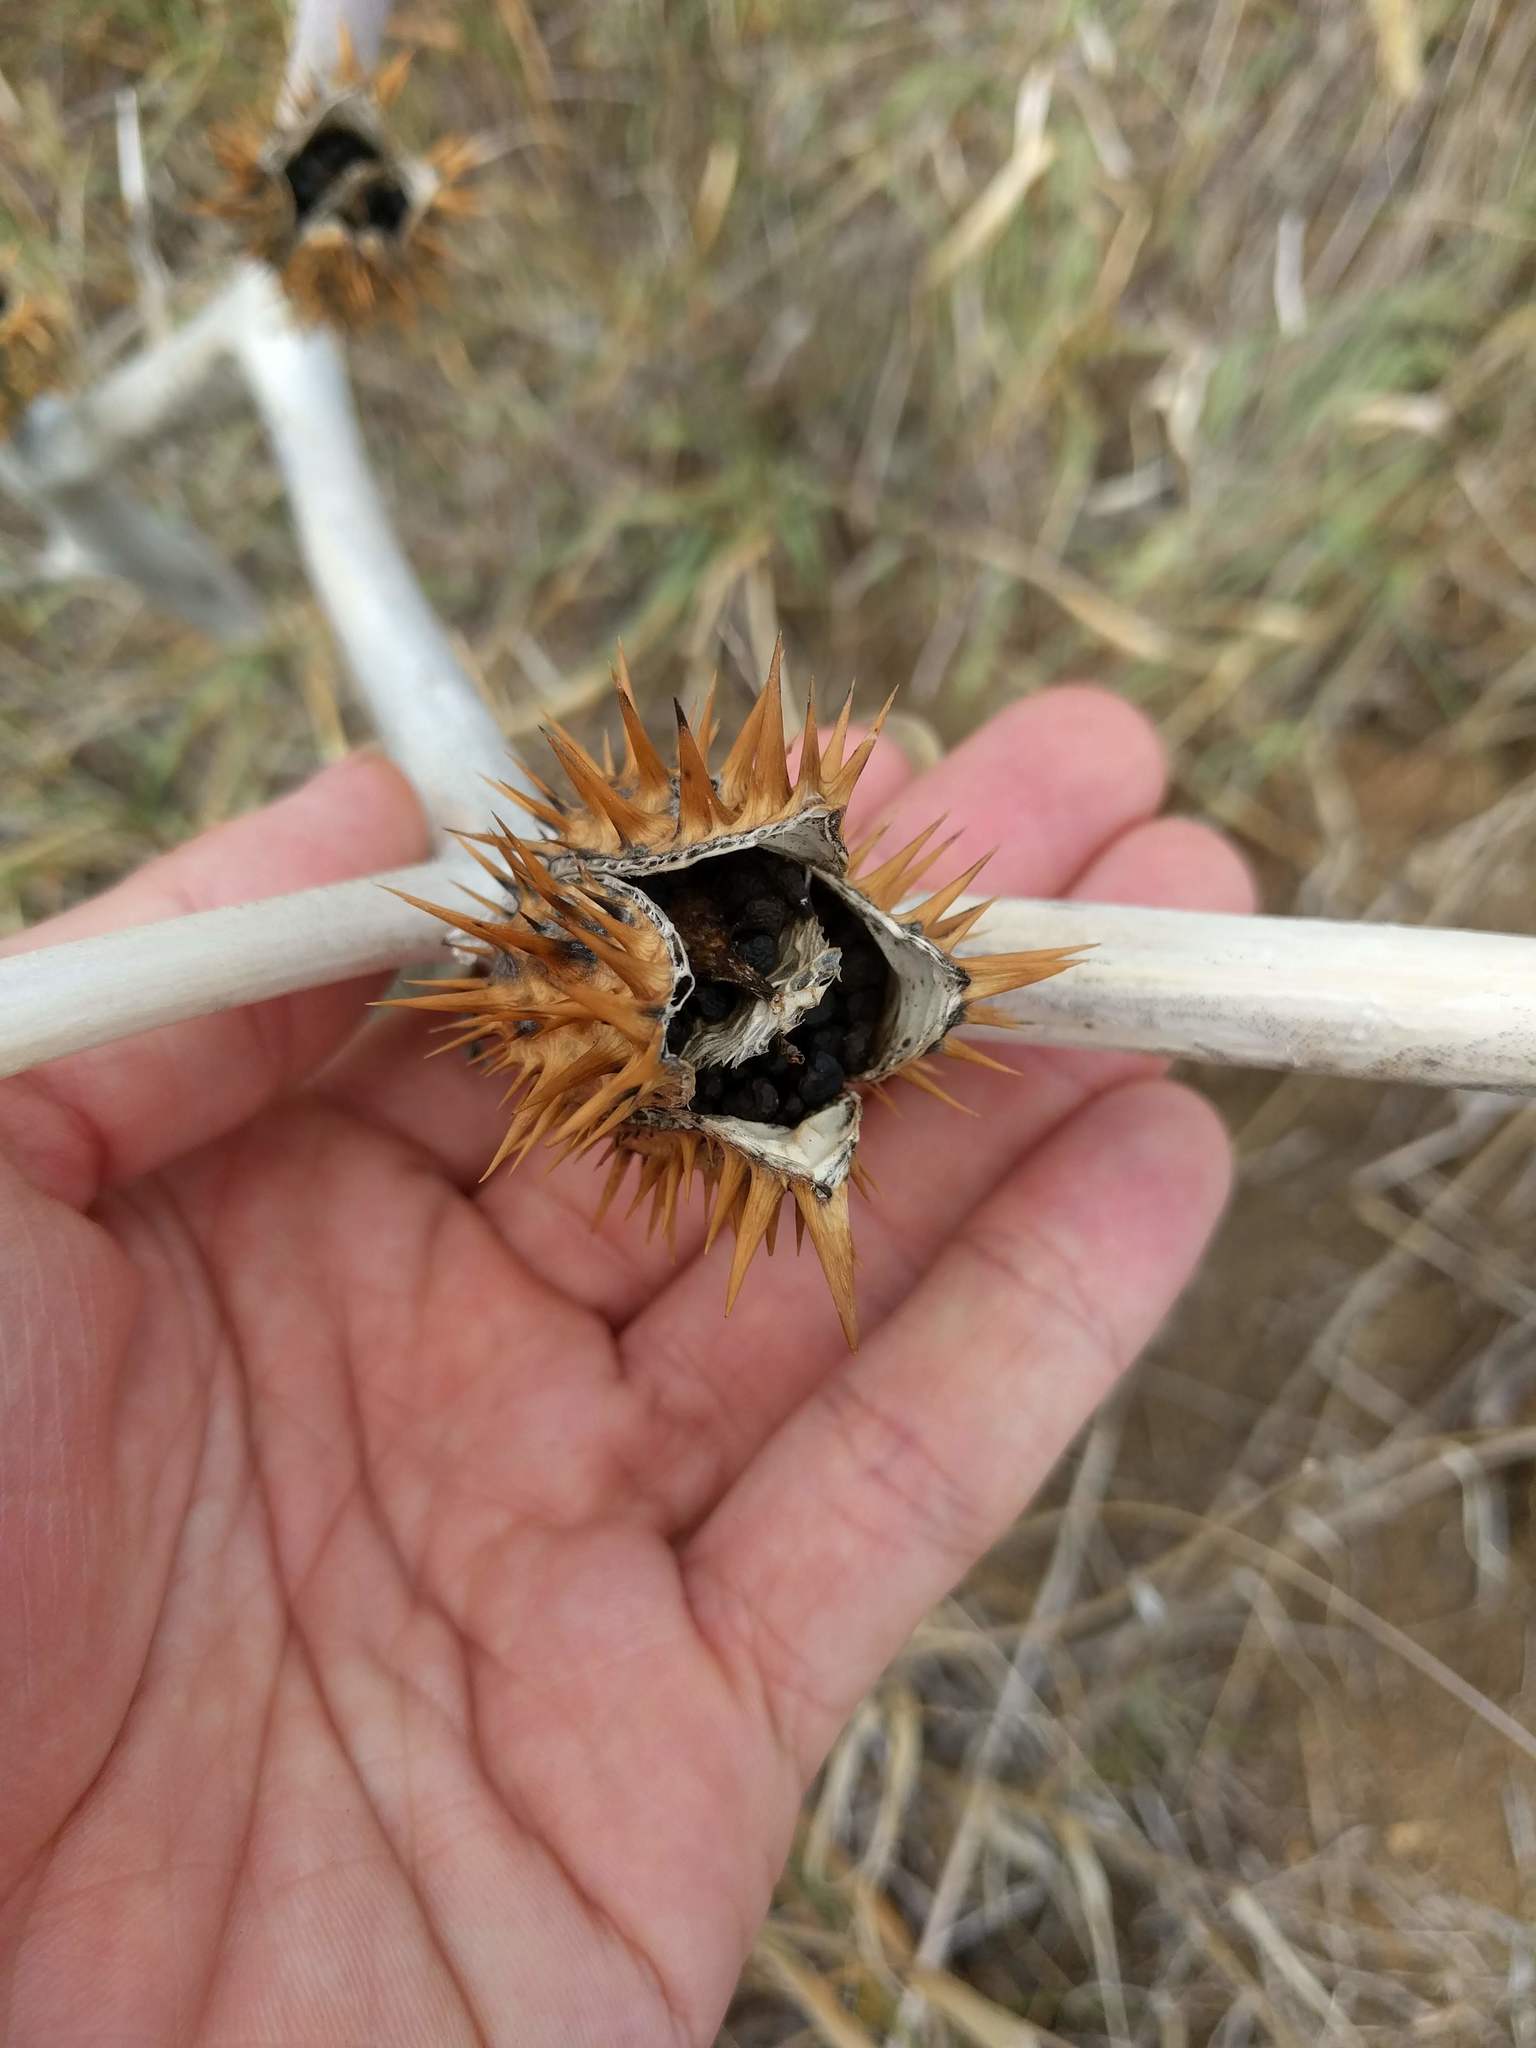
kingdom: Plantae
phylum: Tracheophyta
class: Magnoliopsida
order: Solanales
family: Solanaceae
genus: Datura
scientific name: Datura stramonium
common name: Thorn-apple
